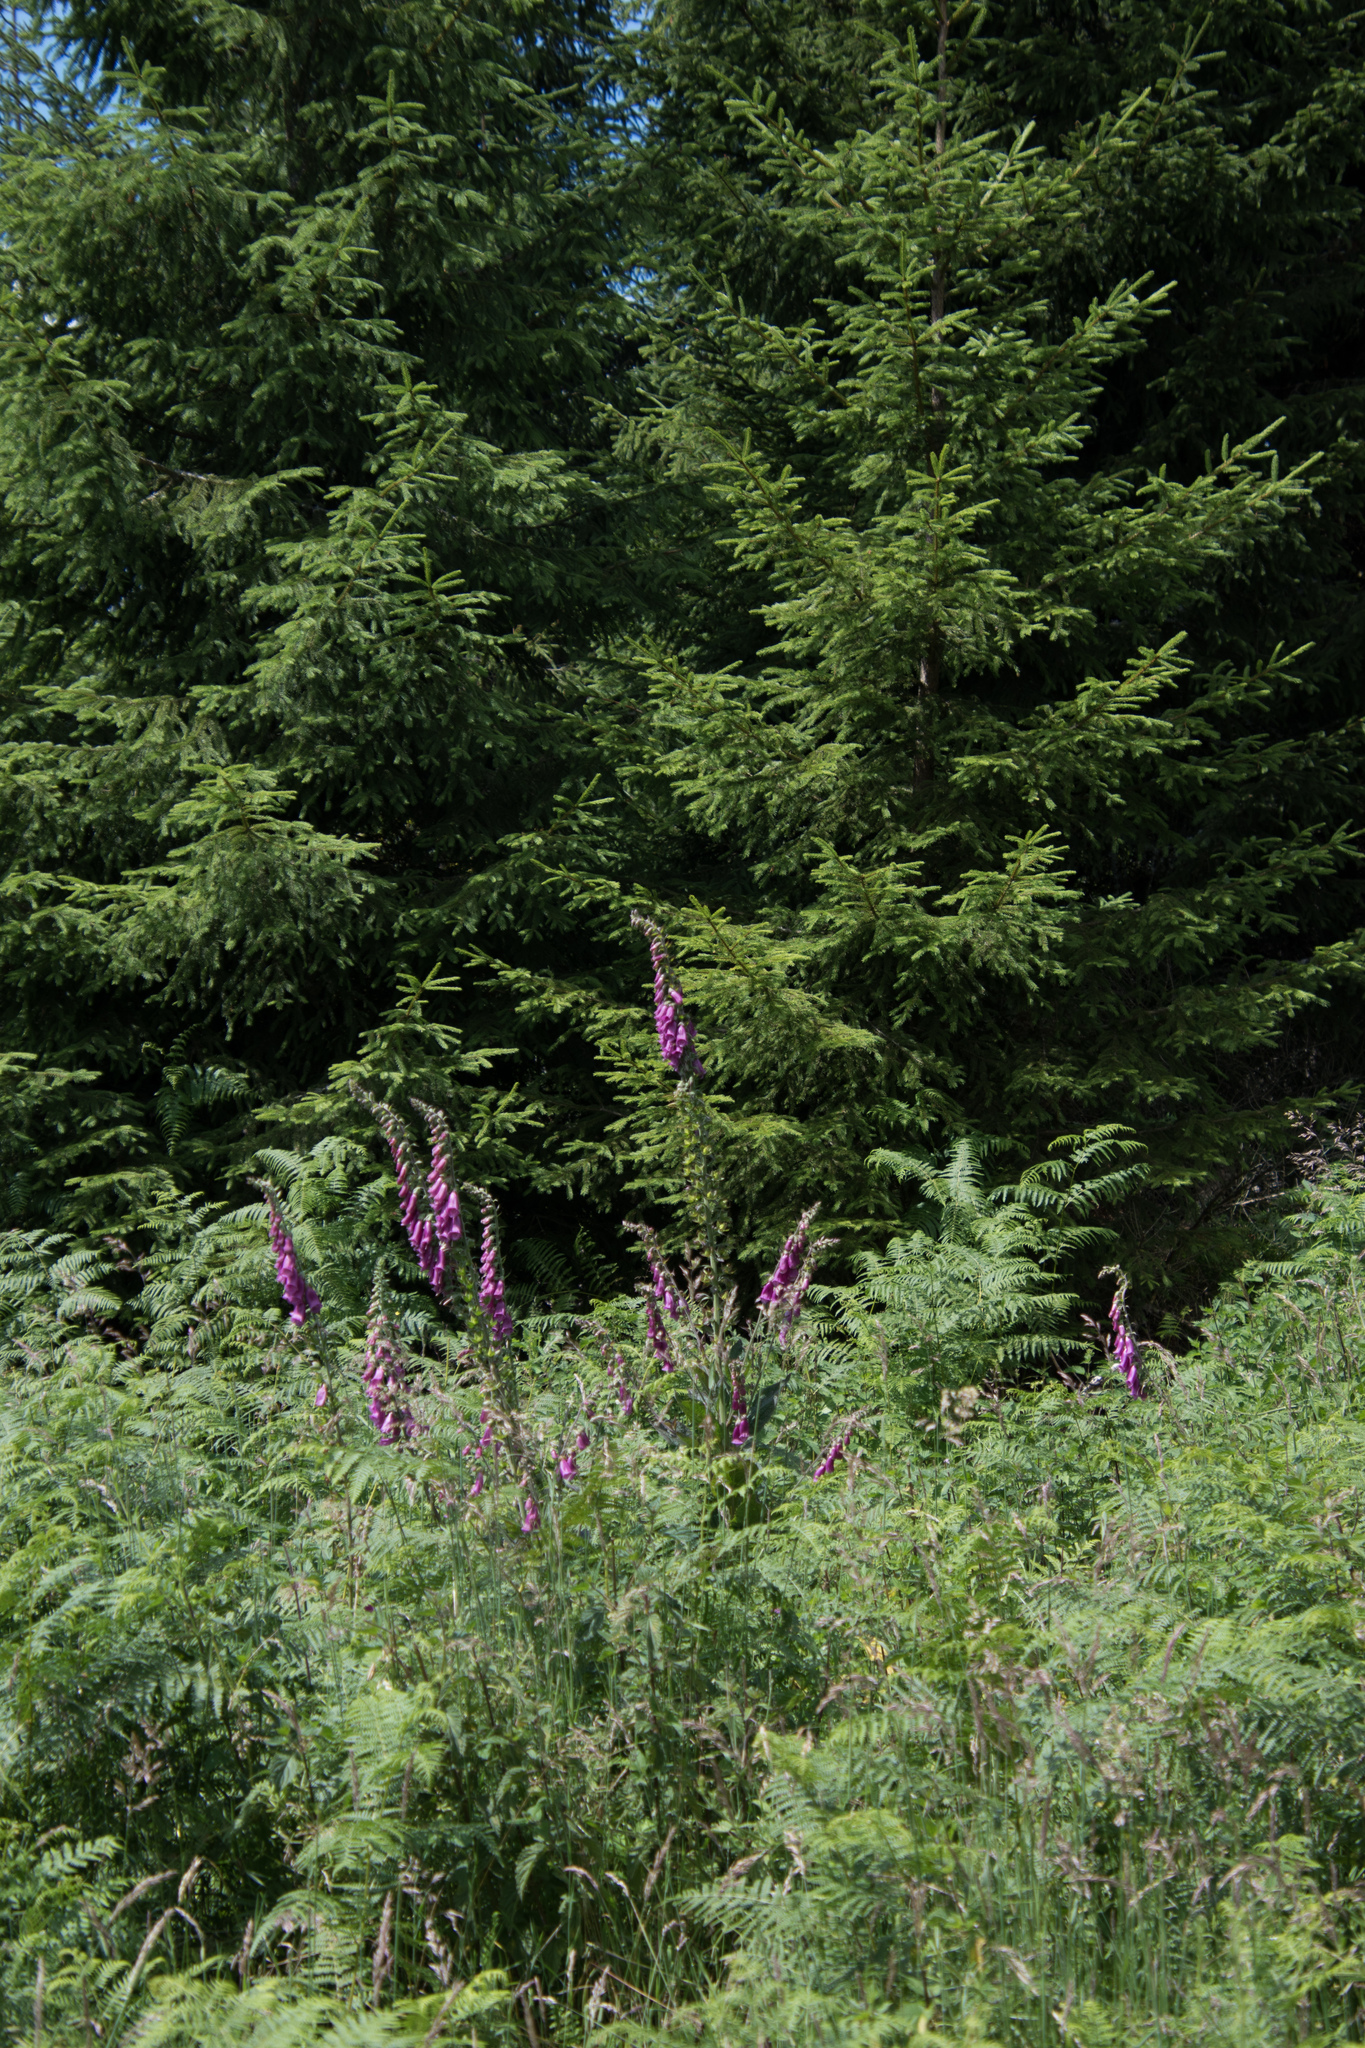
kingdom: Plantae
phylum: Tracheophyta
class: Magnoliopsida
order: Lamiales
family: Plantaginaceae
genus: Digitalis
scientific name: Digitalis purpurea
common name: Foxglove
